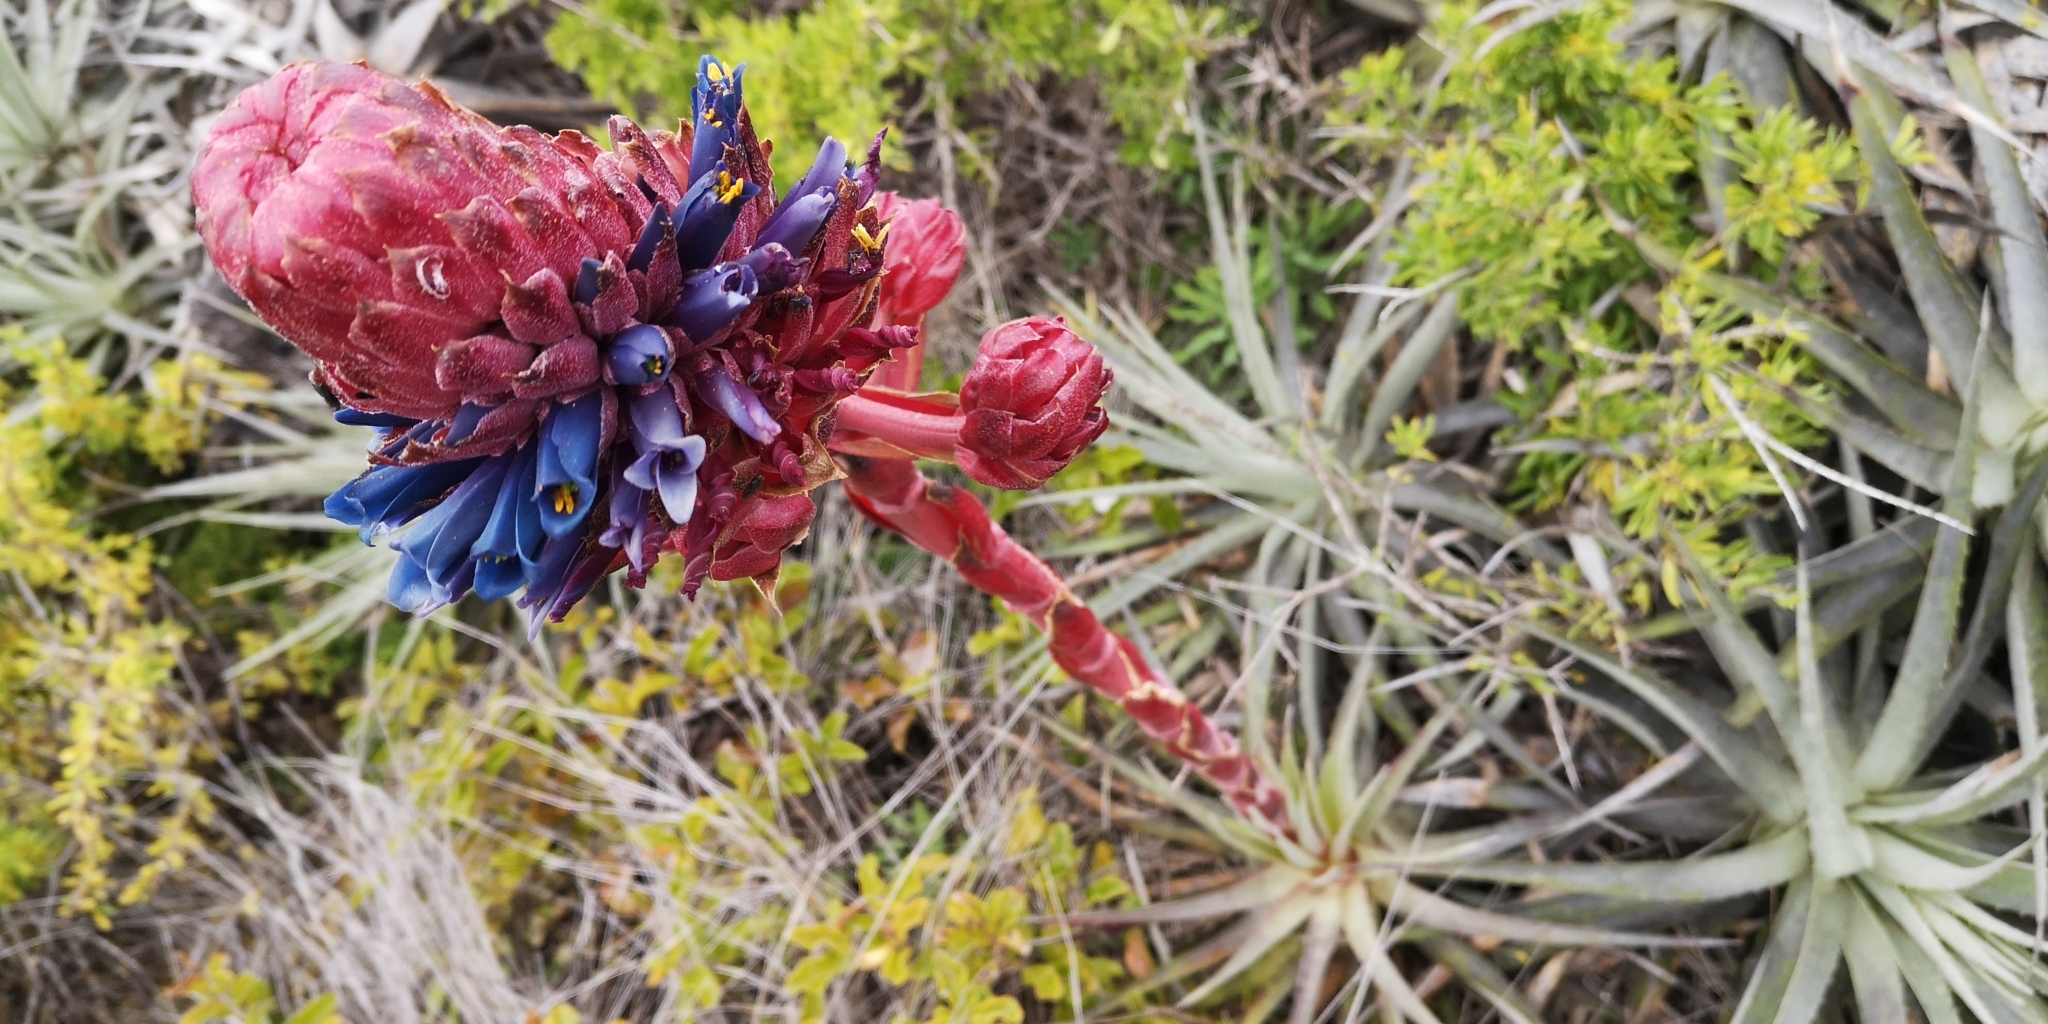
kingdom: Plantae
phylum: Tracheophyta
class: Liliopsida
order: Poales
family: Bromeliaceae
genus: Puya
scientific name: Puya venusta
